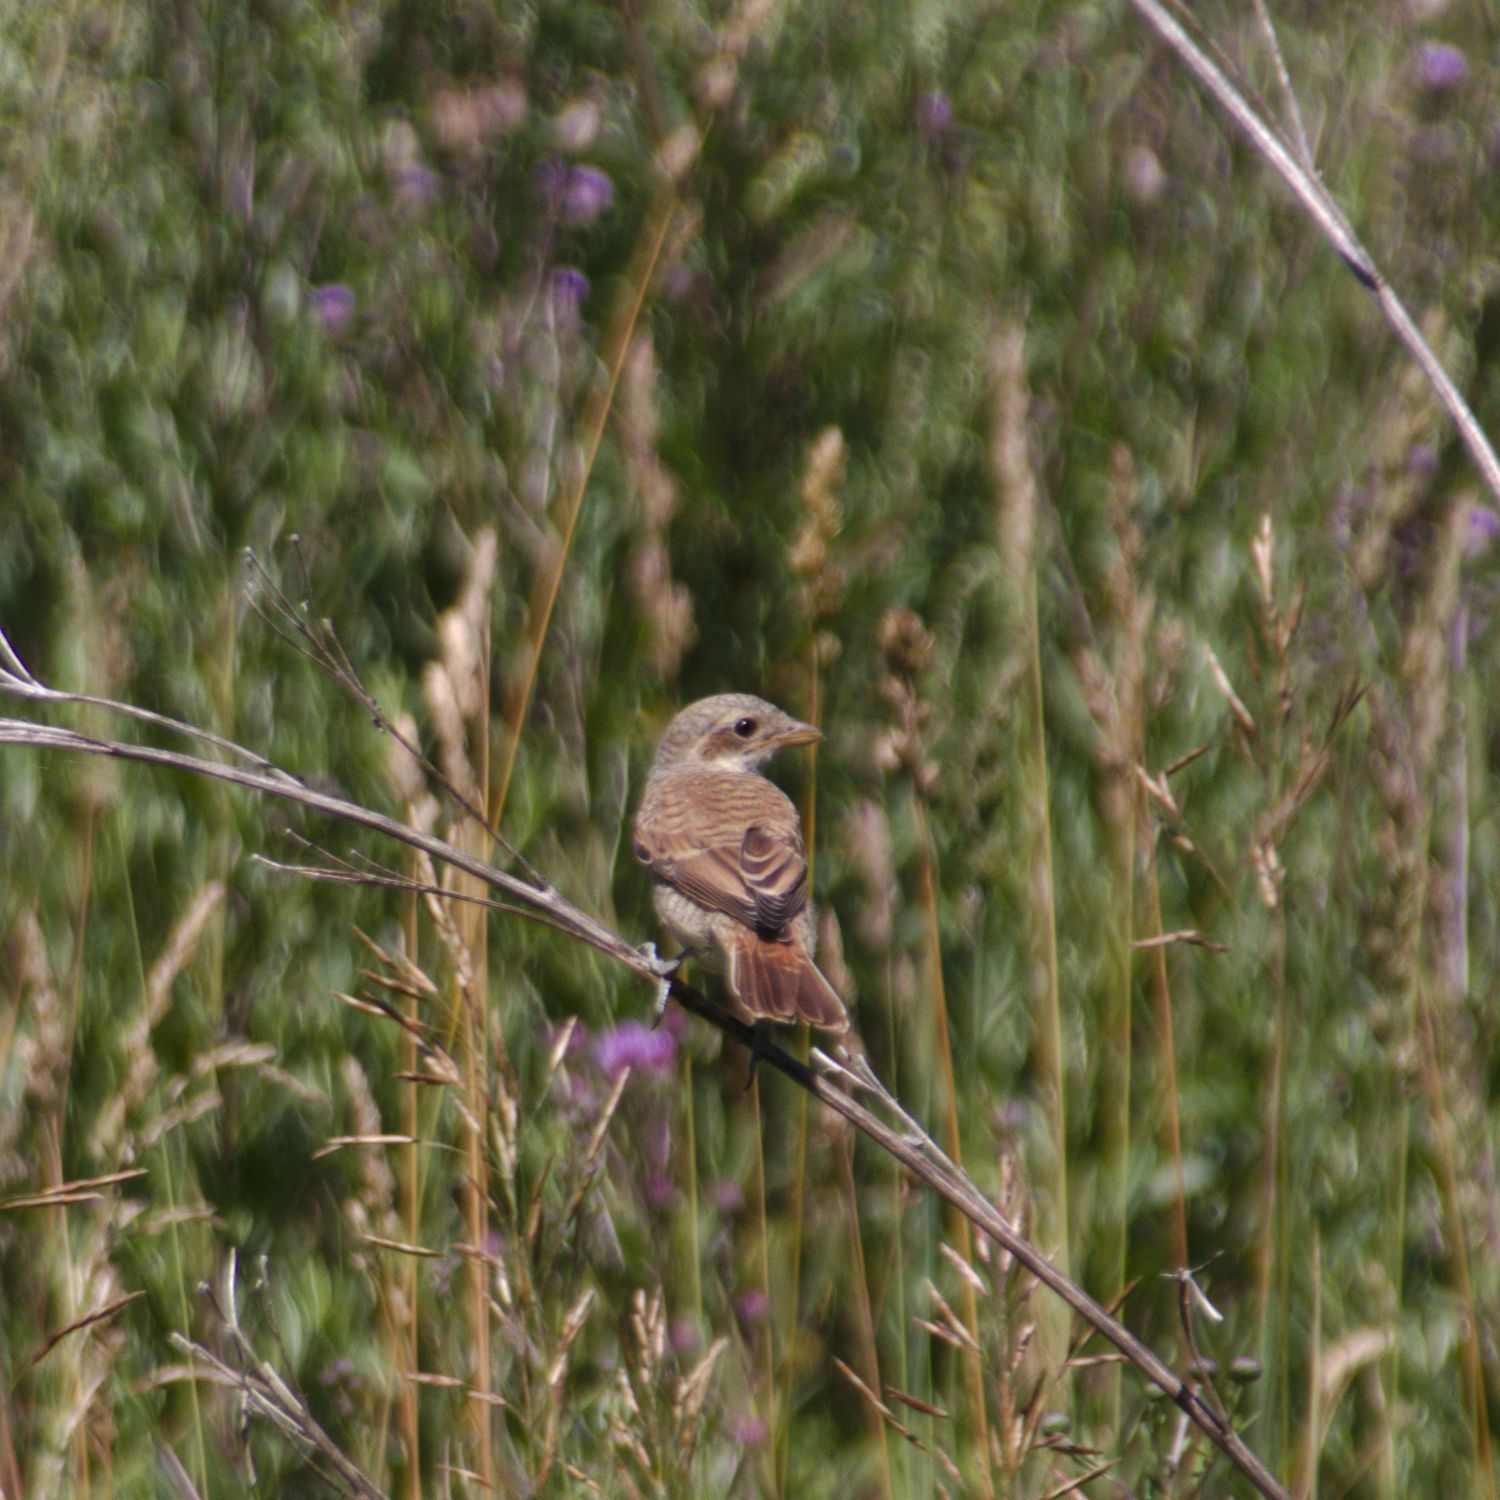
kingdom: Animalia
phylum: Chordata
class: Aves
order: Passeriformes
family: Laniidae
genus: Lanius
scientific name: Lanius collurio
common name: Red-backed shrike
